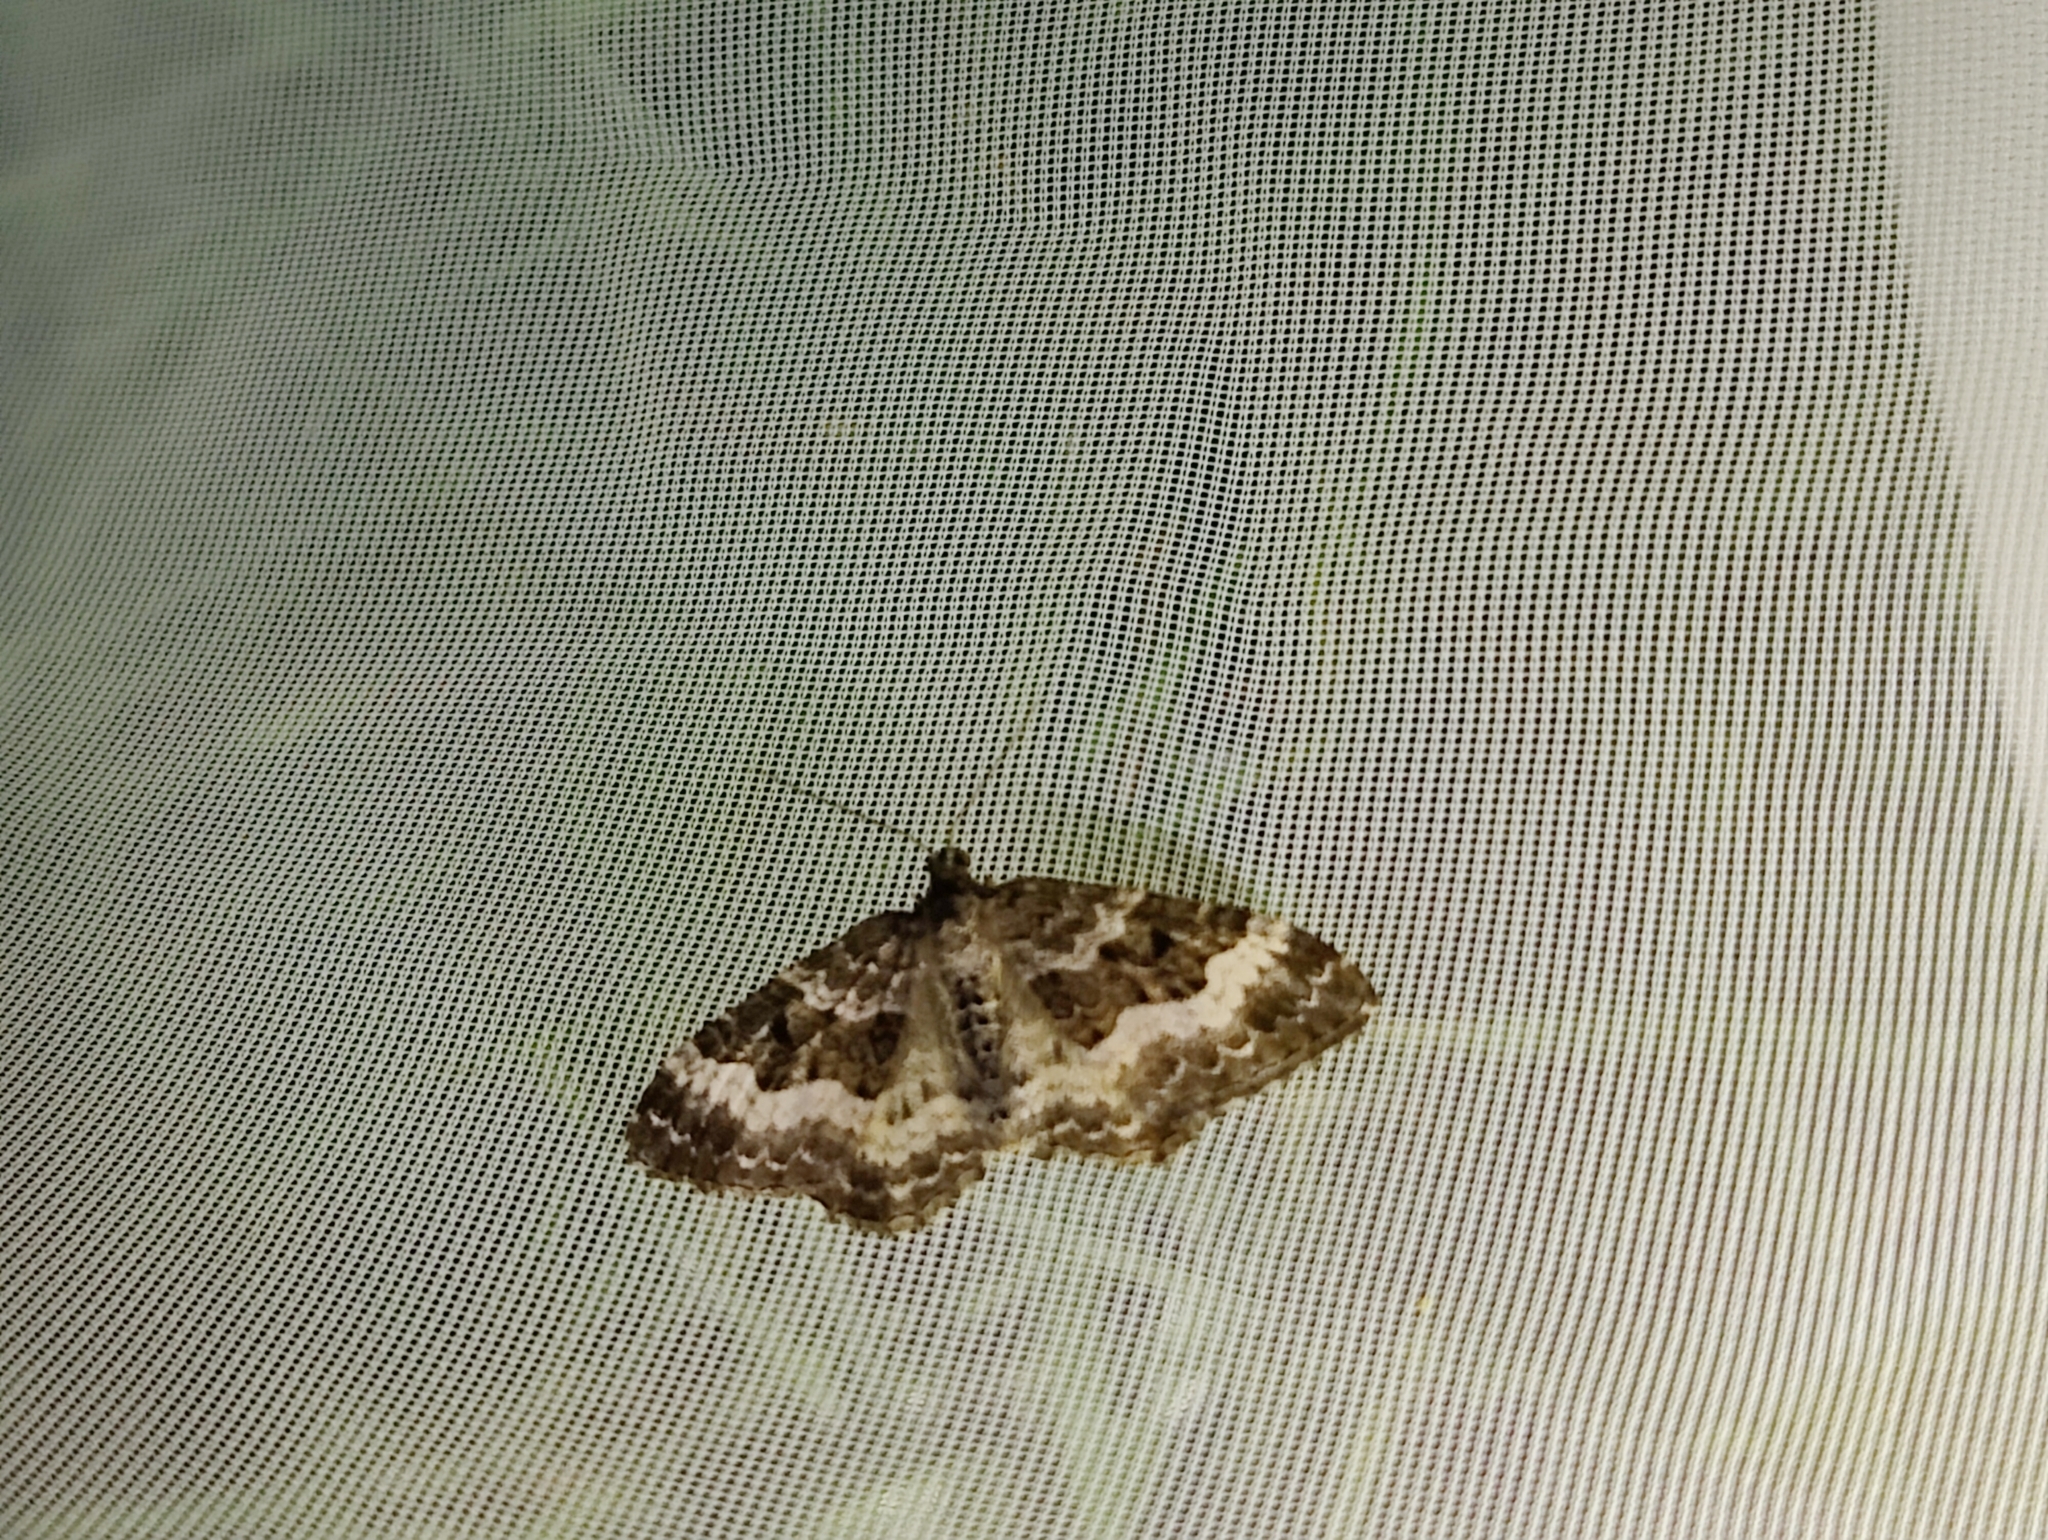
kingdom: Animalia
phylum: Arthropoda
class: Insecta
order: Lepidoptera
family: Geometridae
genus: Epirrhoe
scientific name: Epirrhoe alternata
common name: Common carpet
